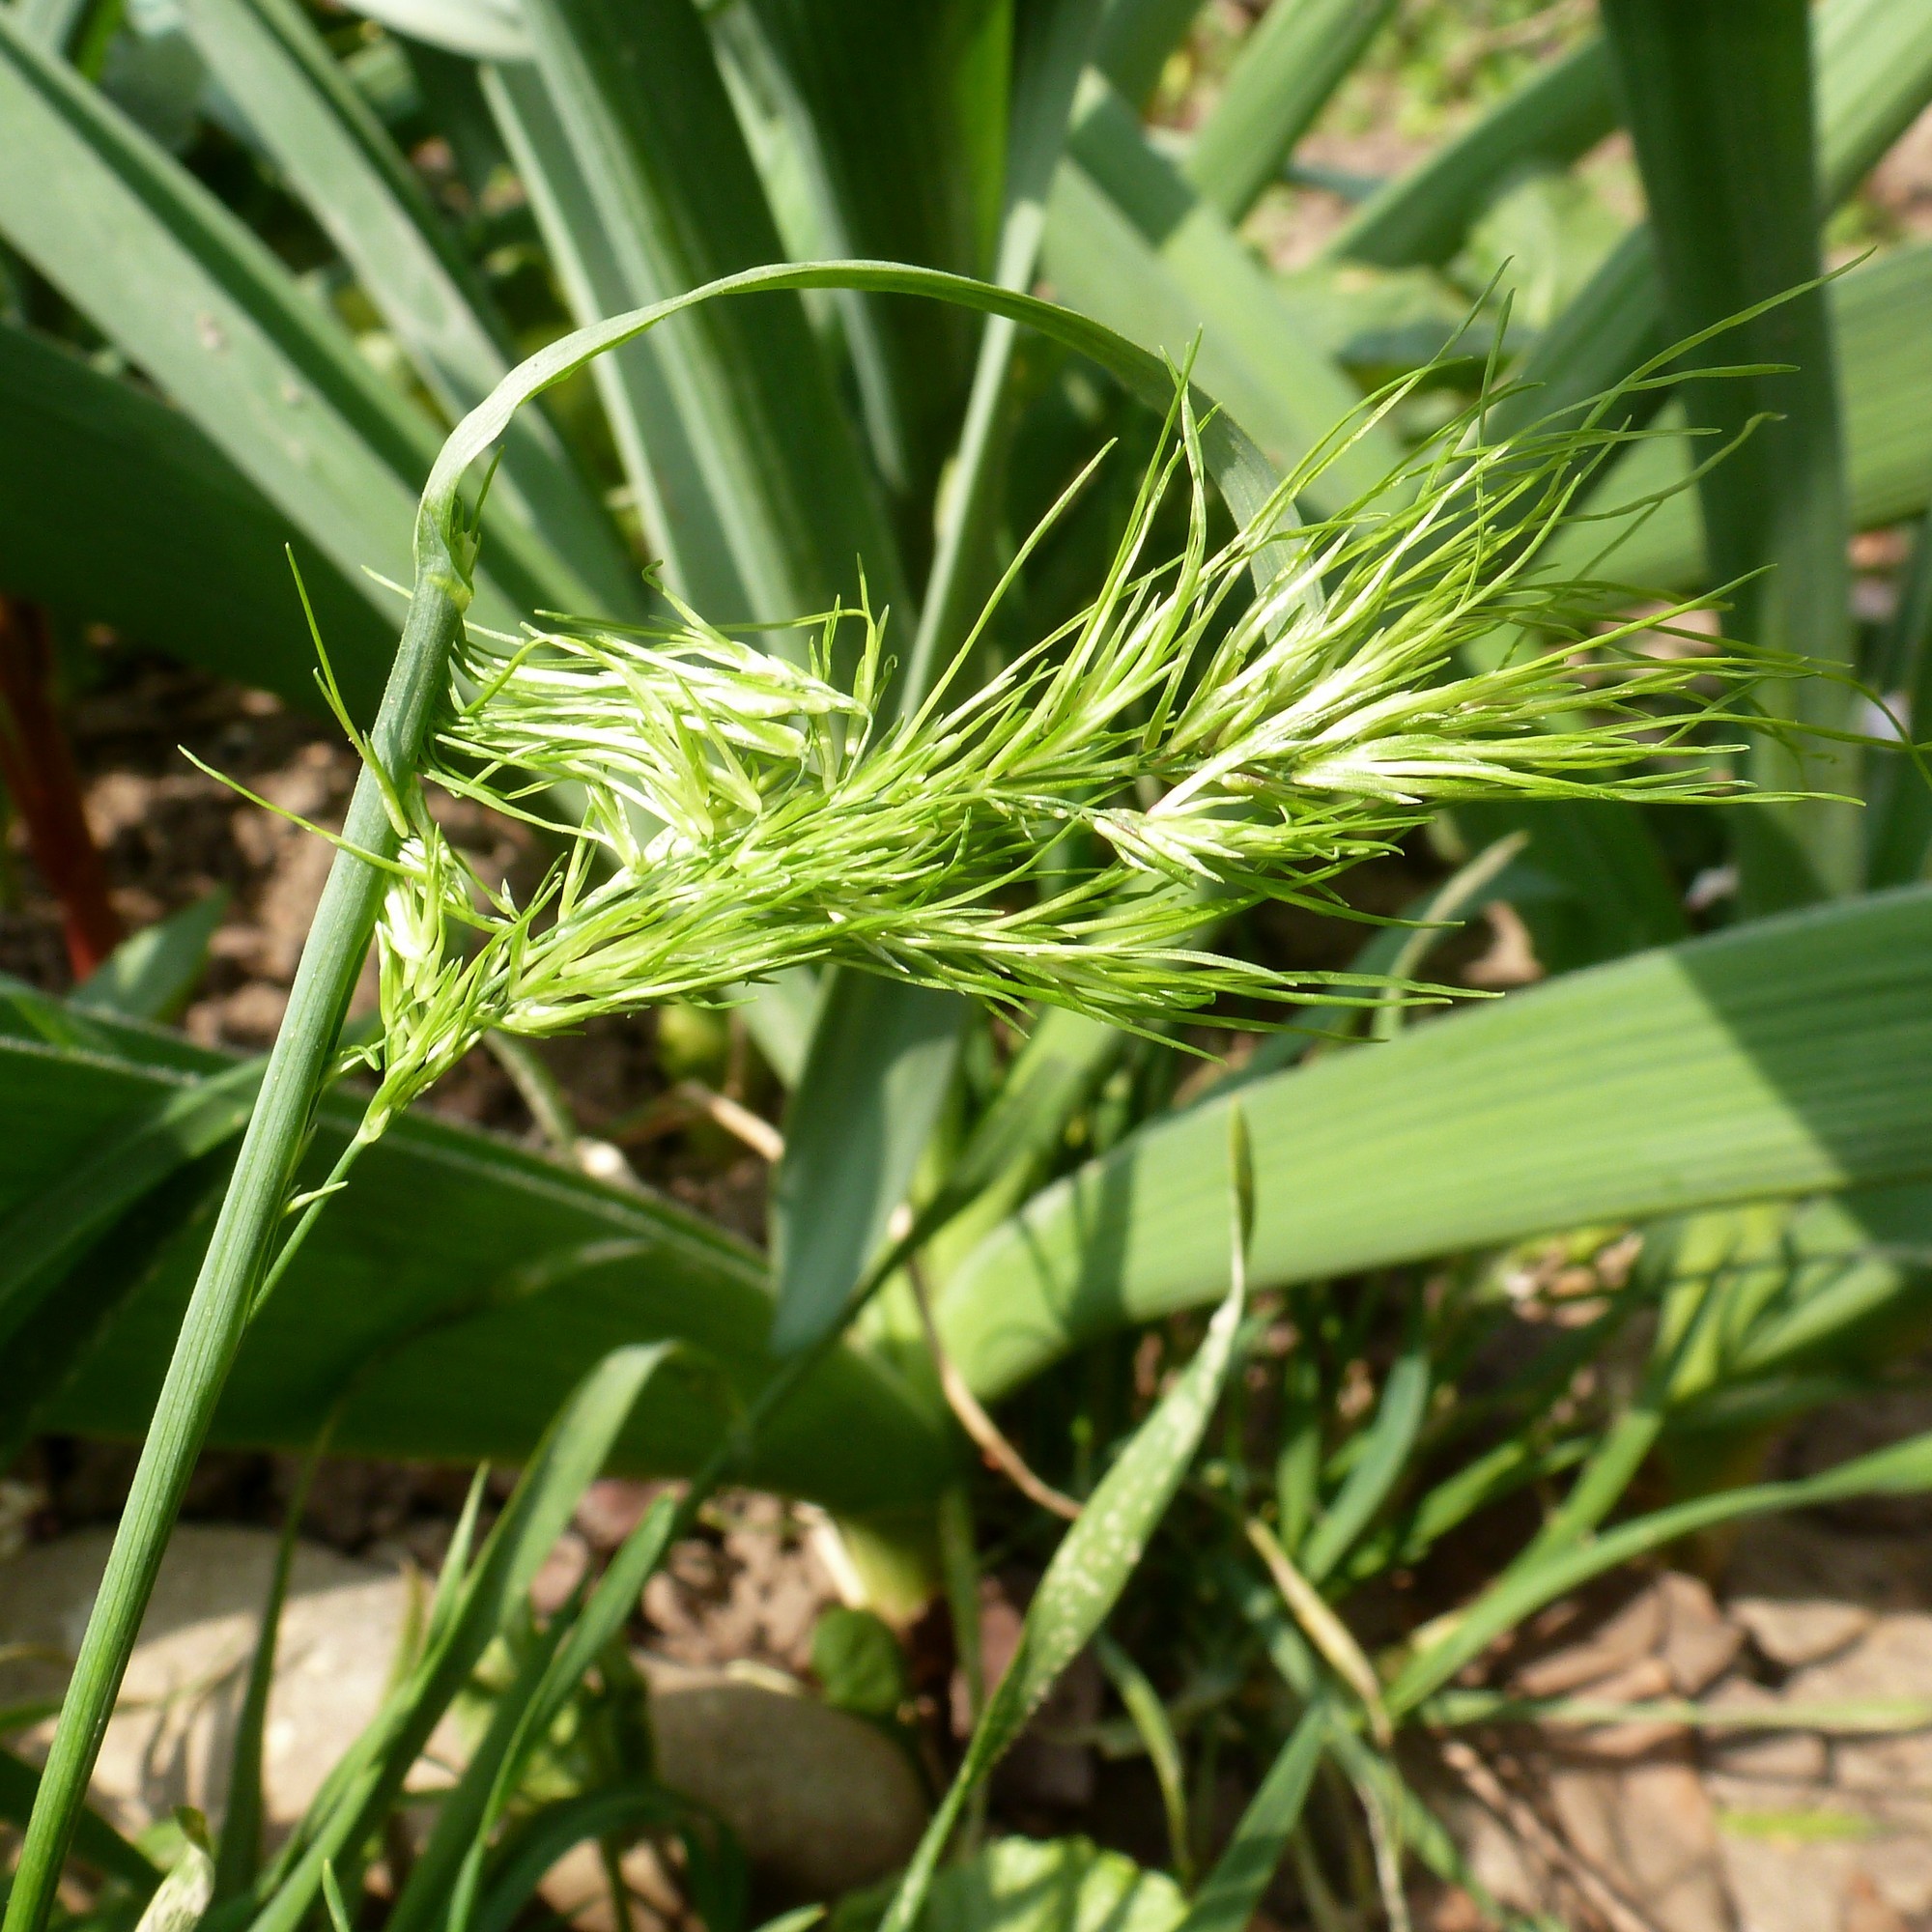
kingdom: Plantae
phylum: Tracheophyta
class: Liliopsida
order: Poales
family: Poaceae
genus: Poa
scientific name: Poa bulbosa
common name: Bulbous bluegrass
